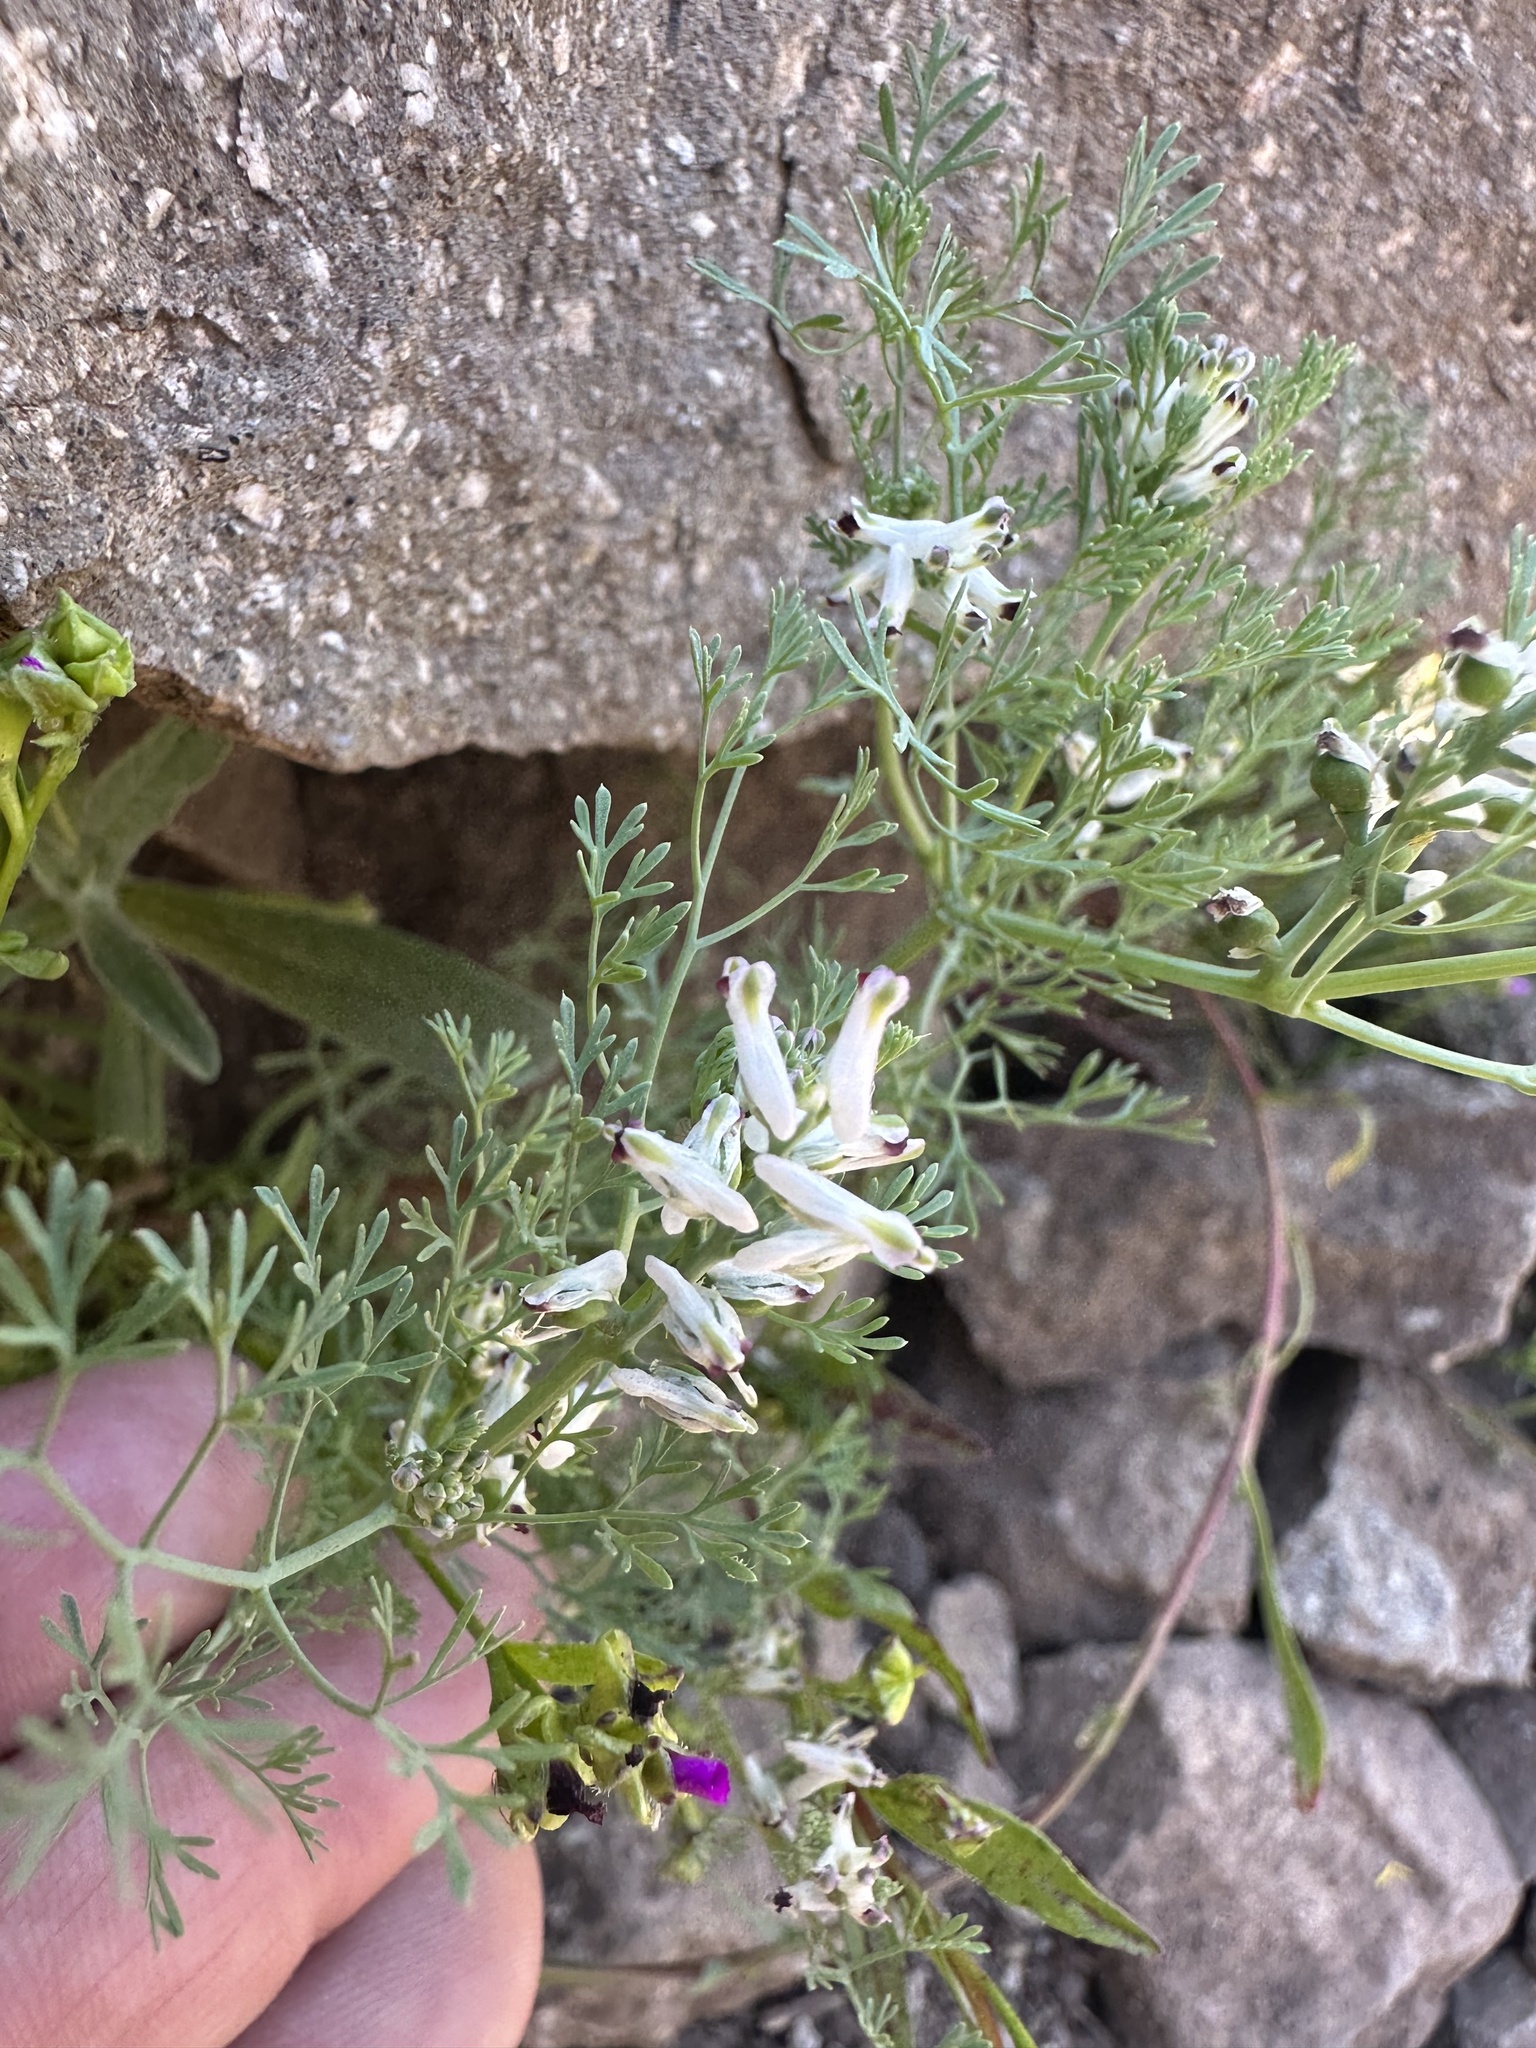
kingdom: Plantae
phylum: Tracheophyta
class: Magnoliopsida
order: Ranunculales
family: Papaveraceae
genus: Fumaria
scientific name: Fumaria parviflora
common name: Fine-leaved fumitory
